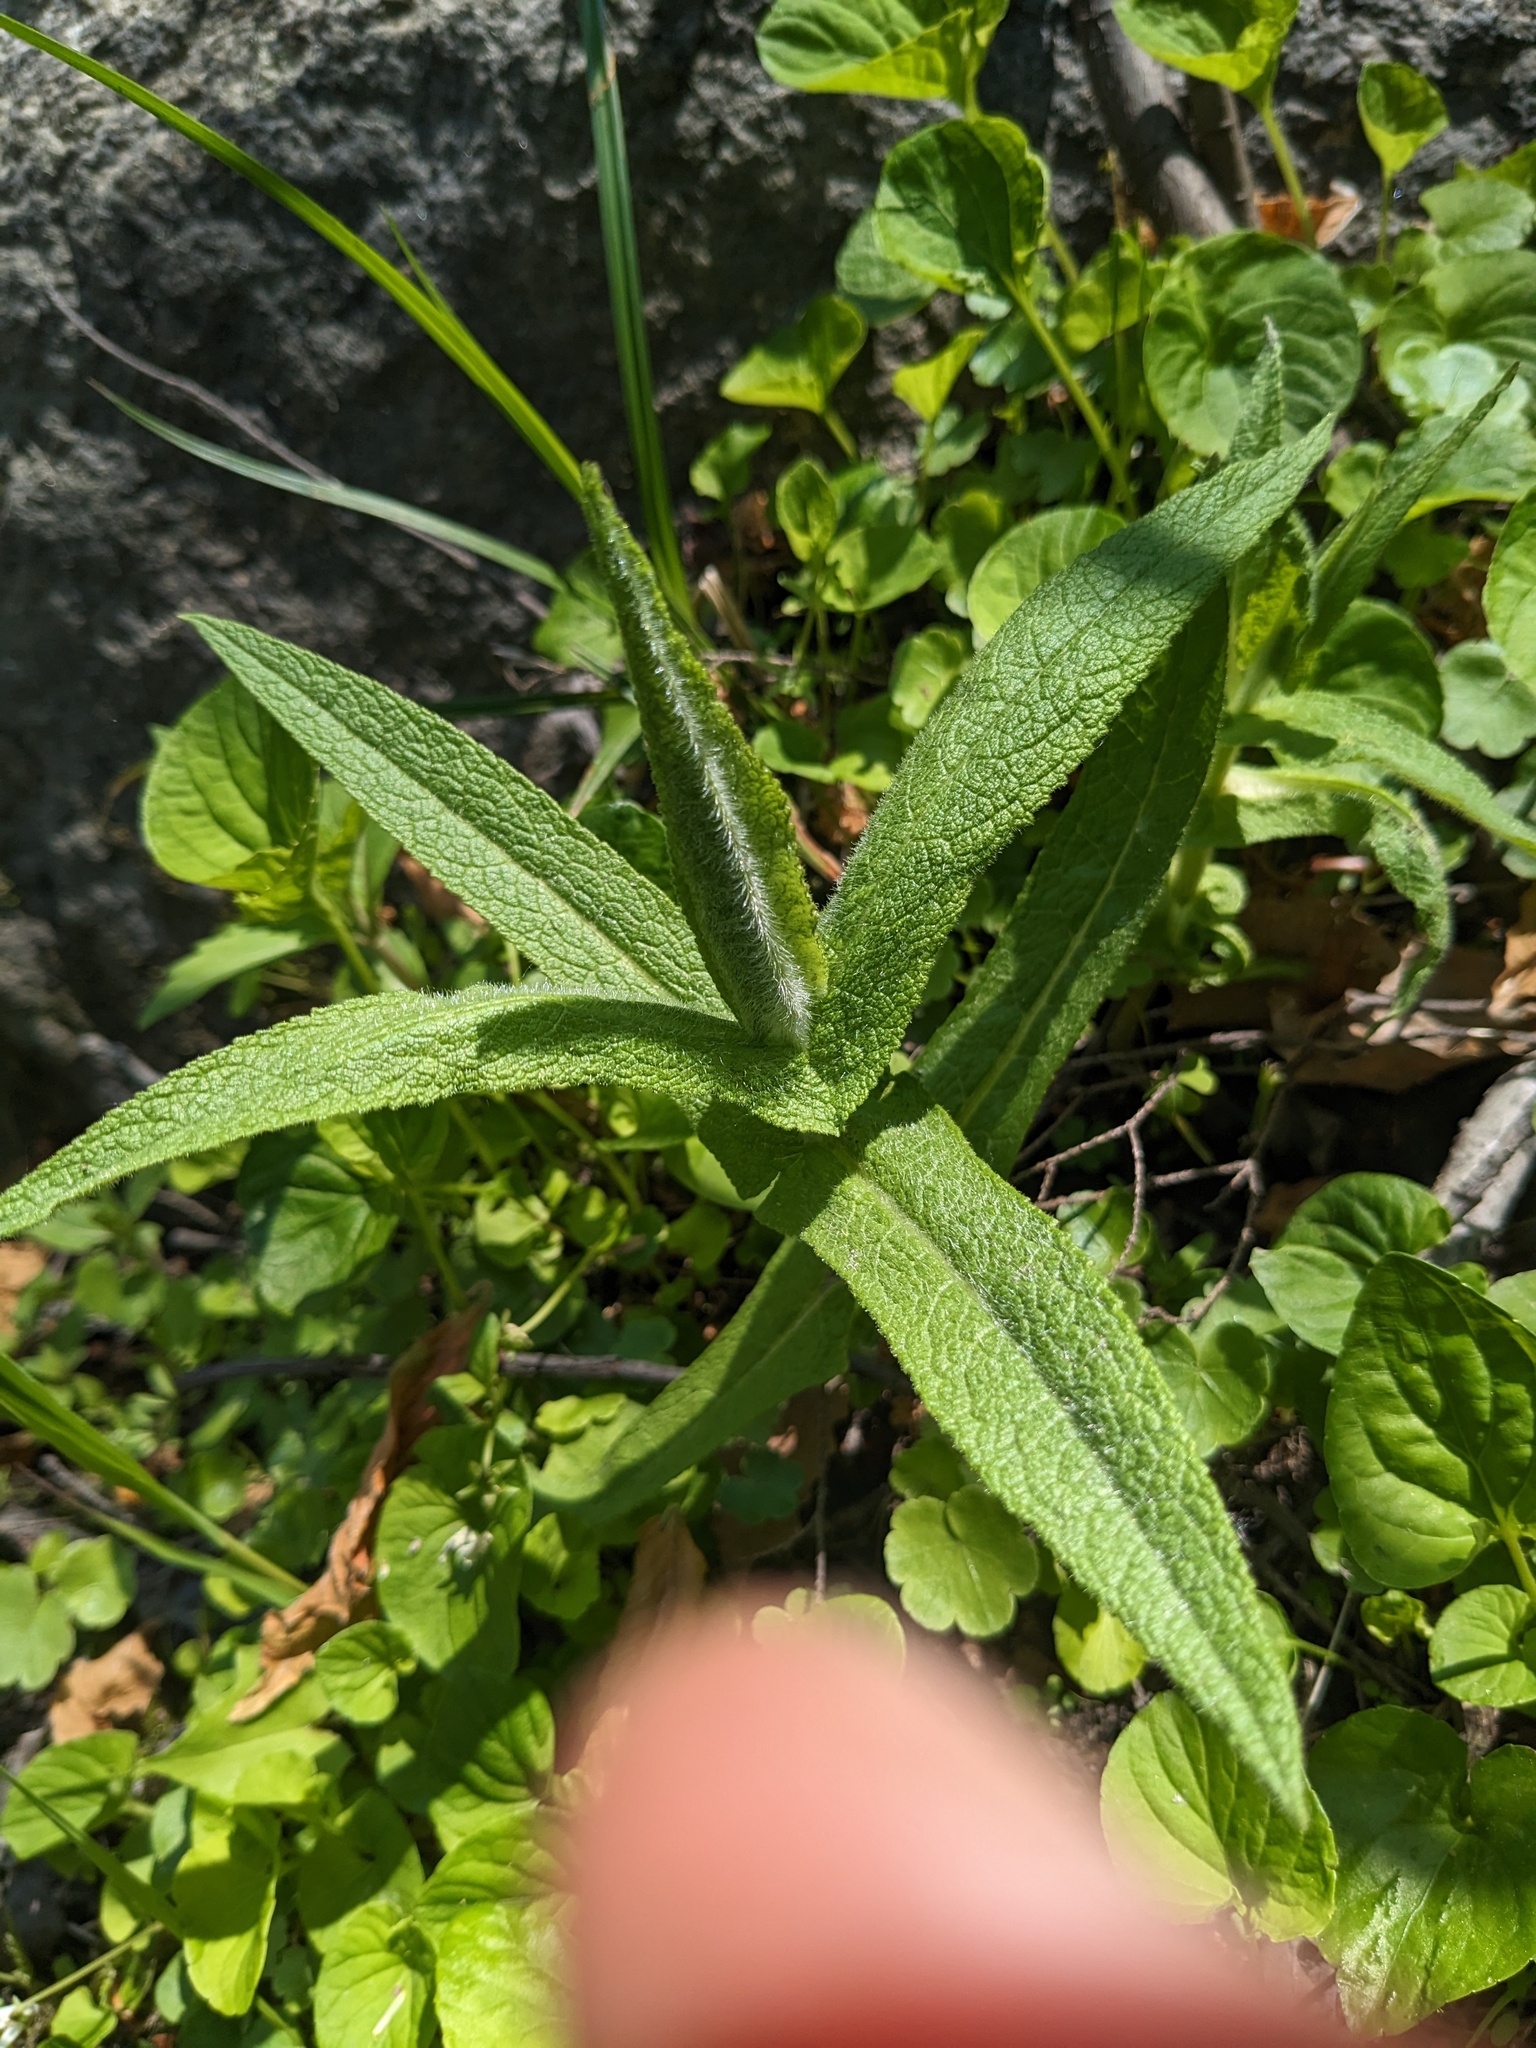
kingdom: Plantae
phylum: Tracheophyta
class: Magnoliopsida
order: Asterales
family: Asteraceae
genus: Eupatorium
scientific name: Eupatorium perfoliatum
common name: Boneset
